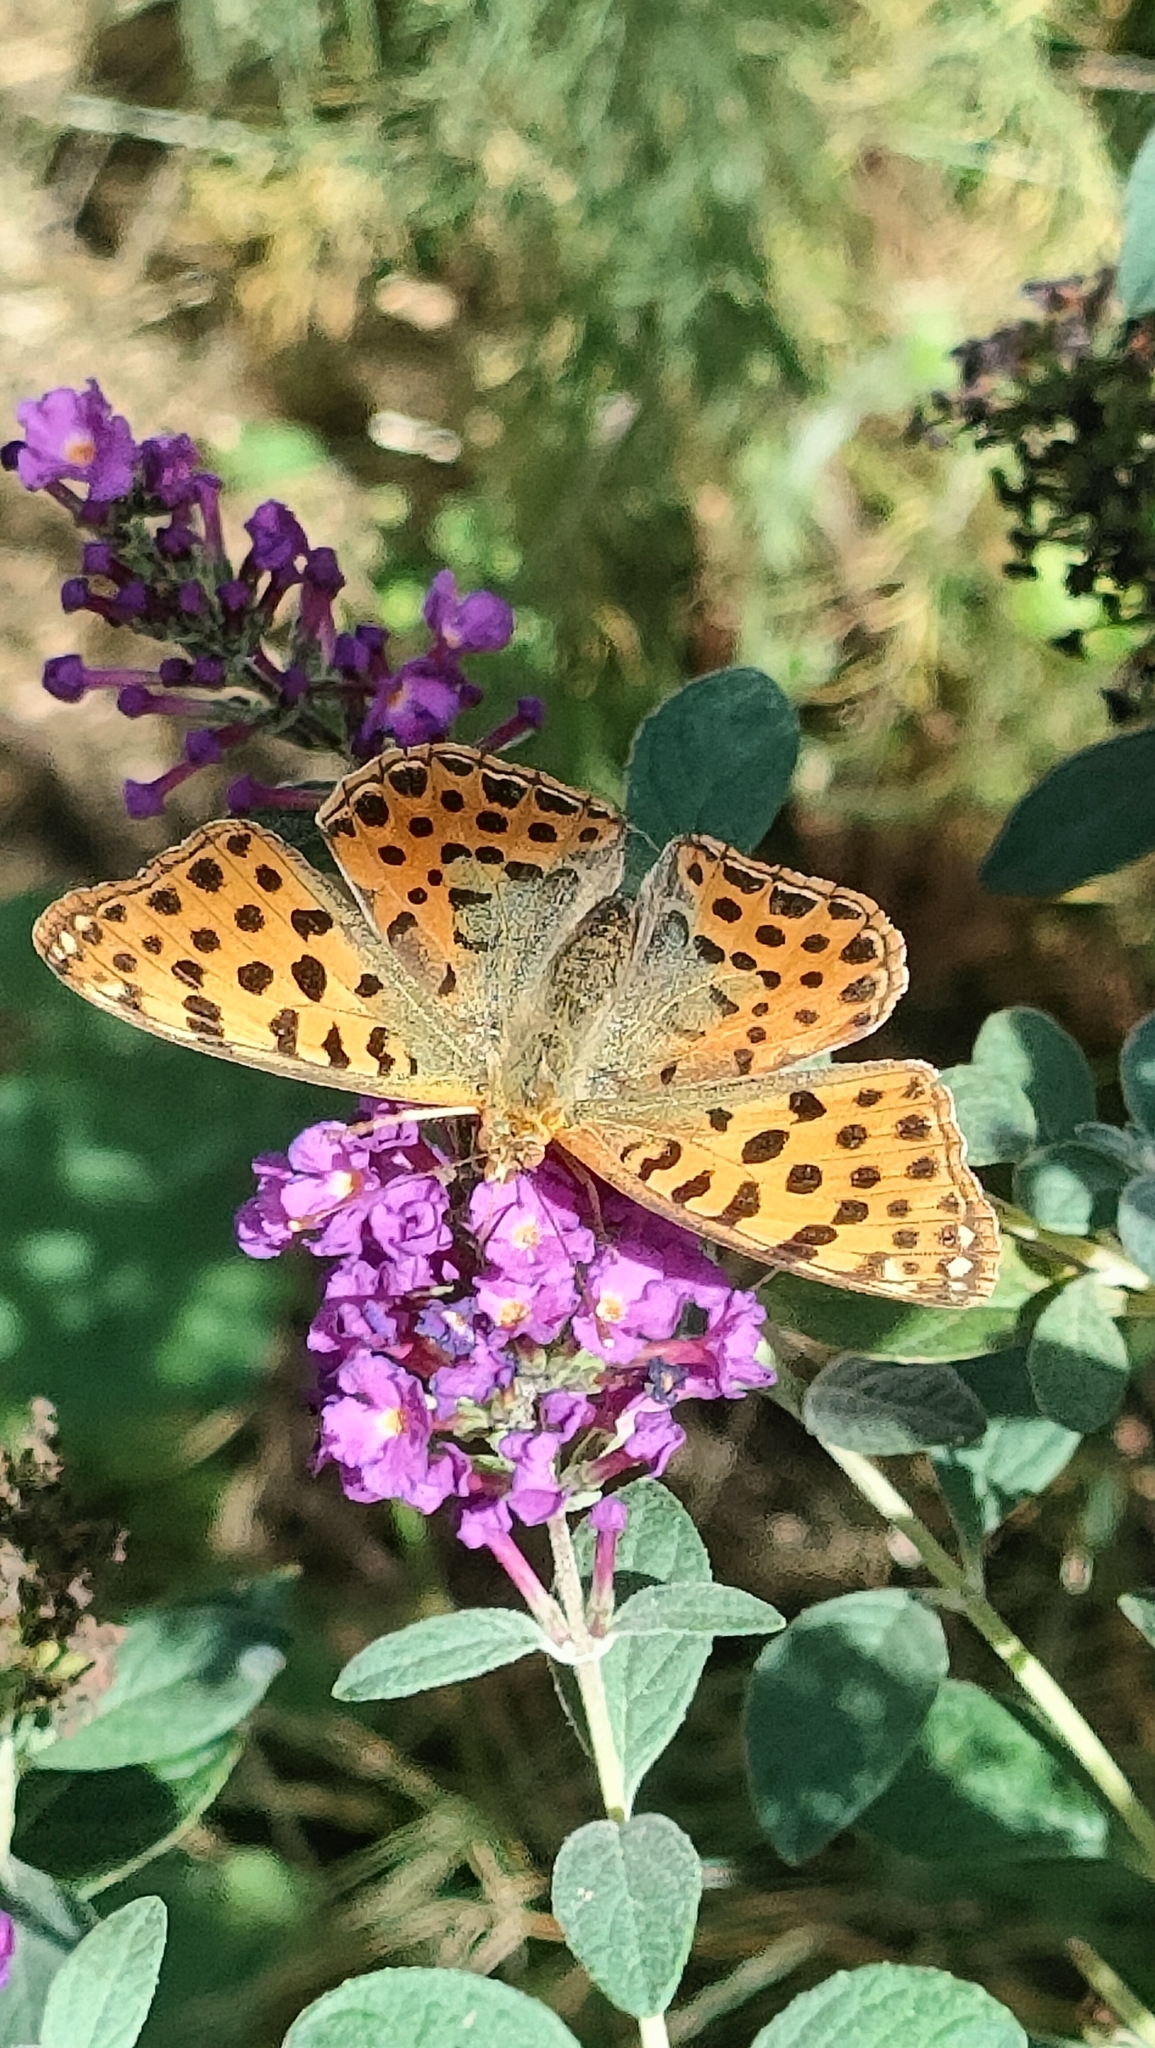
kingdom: Animalia
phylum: Arthropoda
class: Insecta
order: Lepidoptera
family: Nymphalidae
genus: Issoria
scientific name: Issoria lathonia
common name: Queen of spain fritillary
